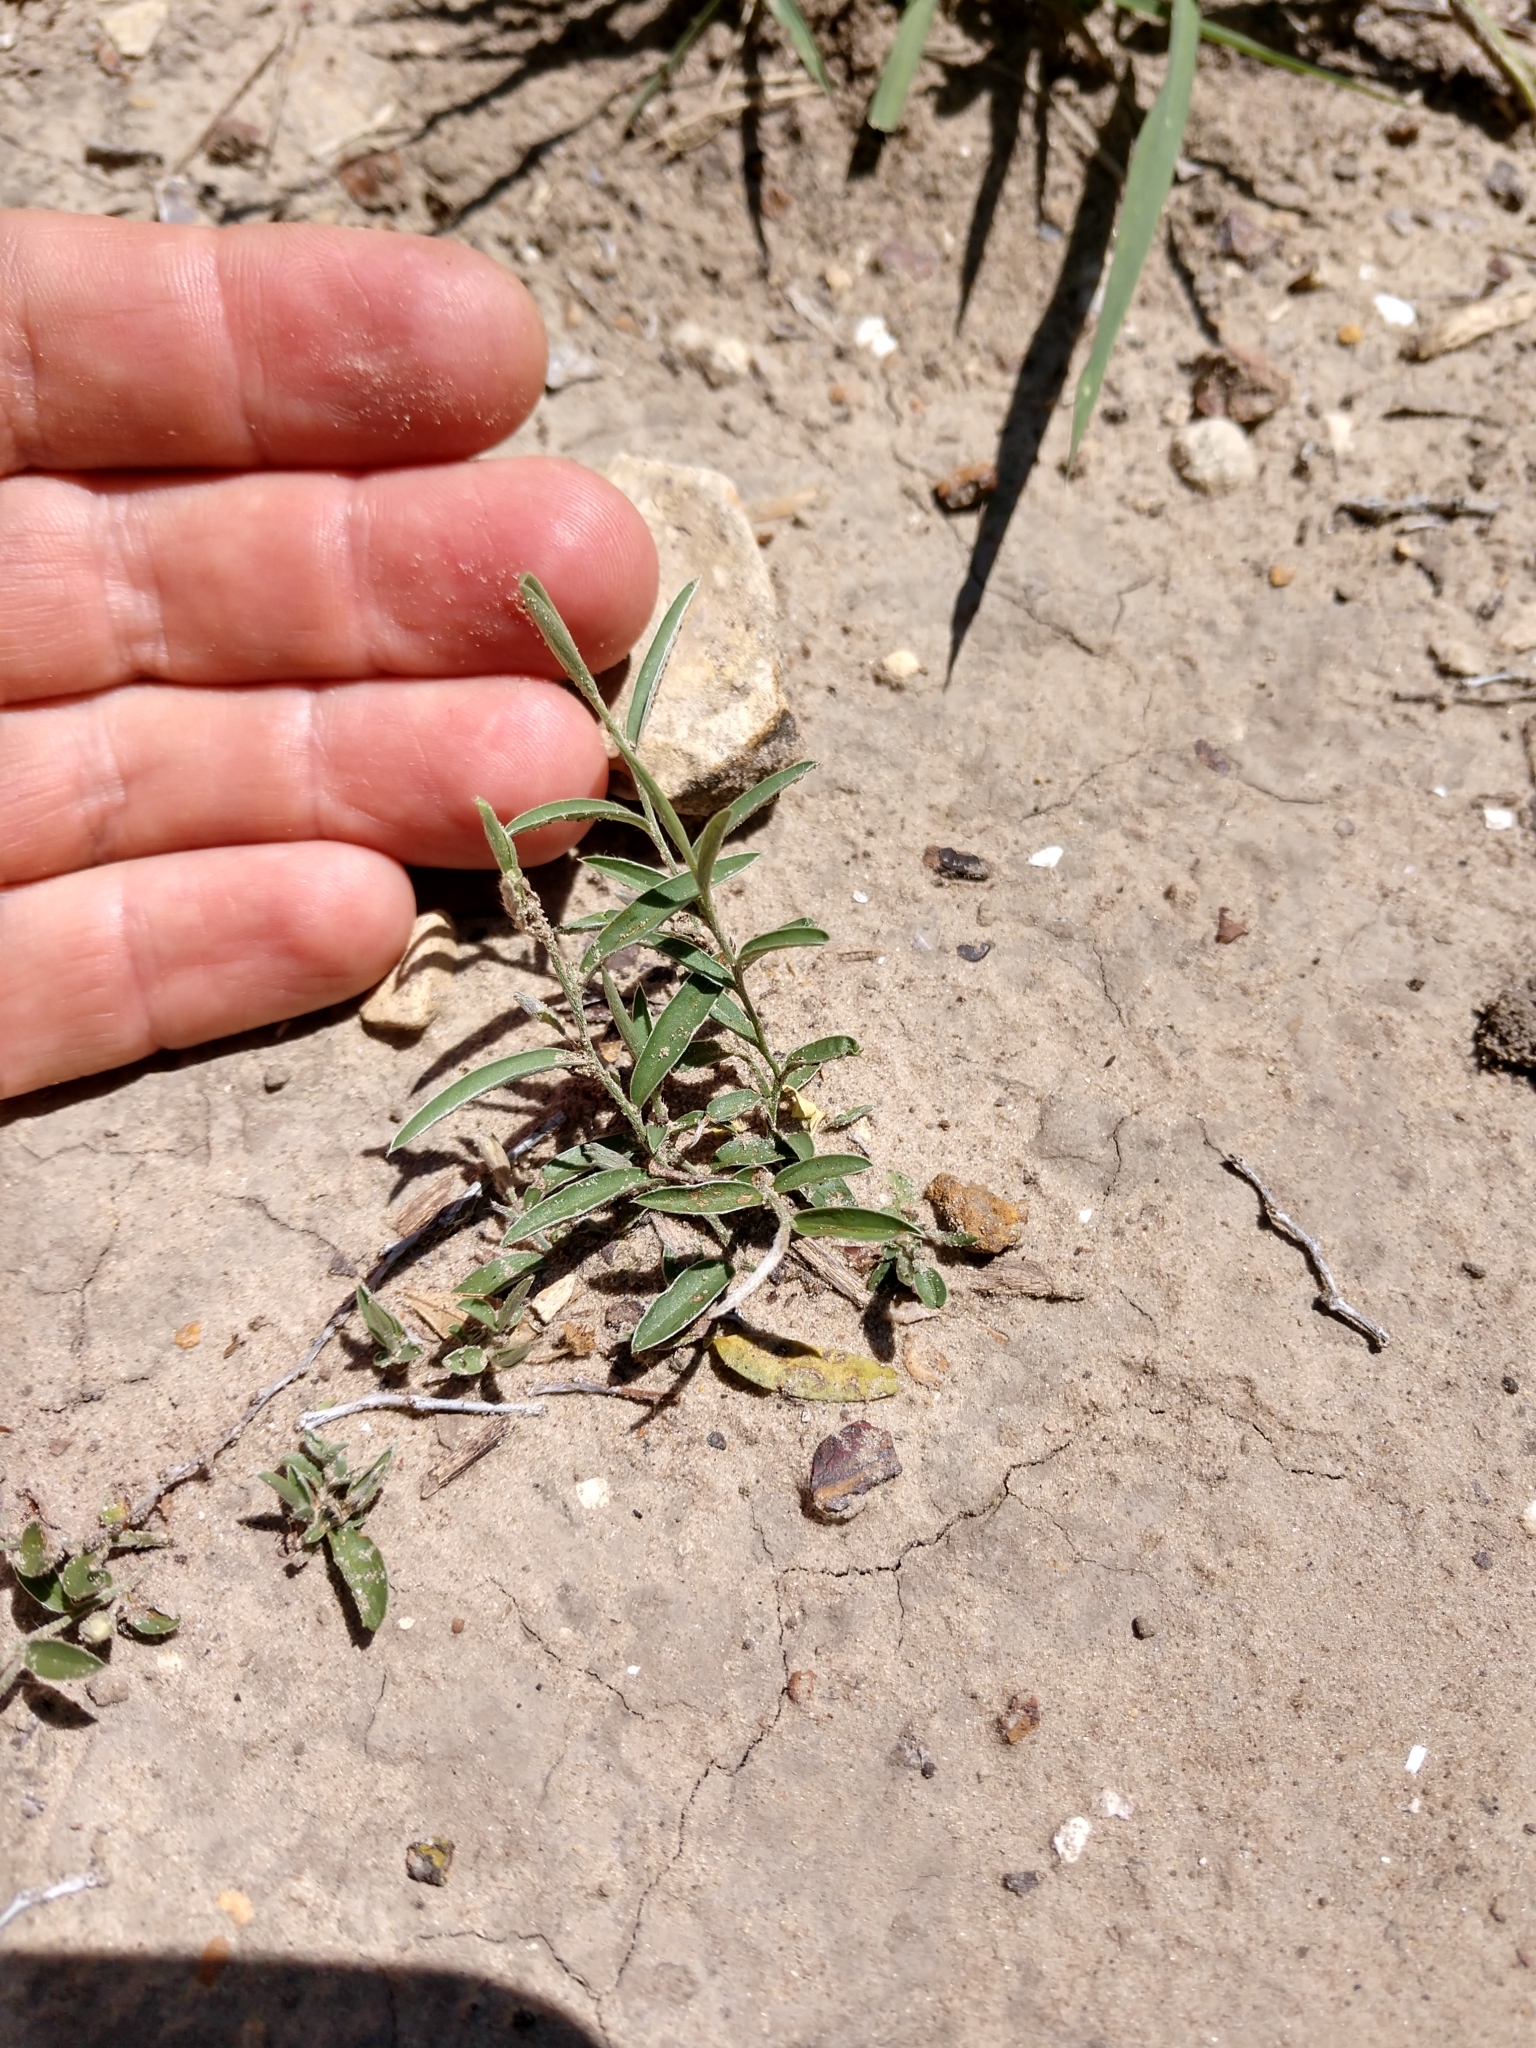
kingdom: Plantae
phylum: Tracheophyta
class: Magnoliopsida
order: Solanales
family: Convolvulaceae
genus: Evolvulus
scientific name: Evolvulus sericeus
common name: Blue dots
